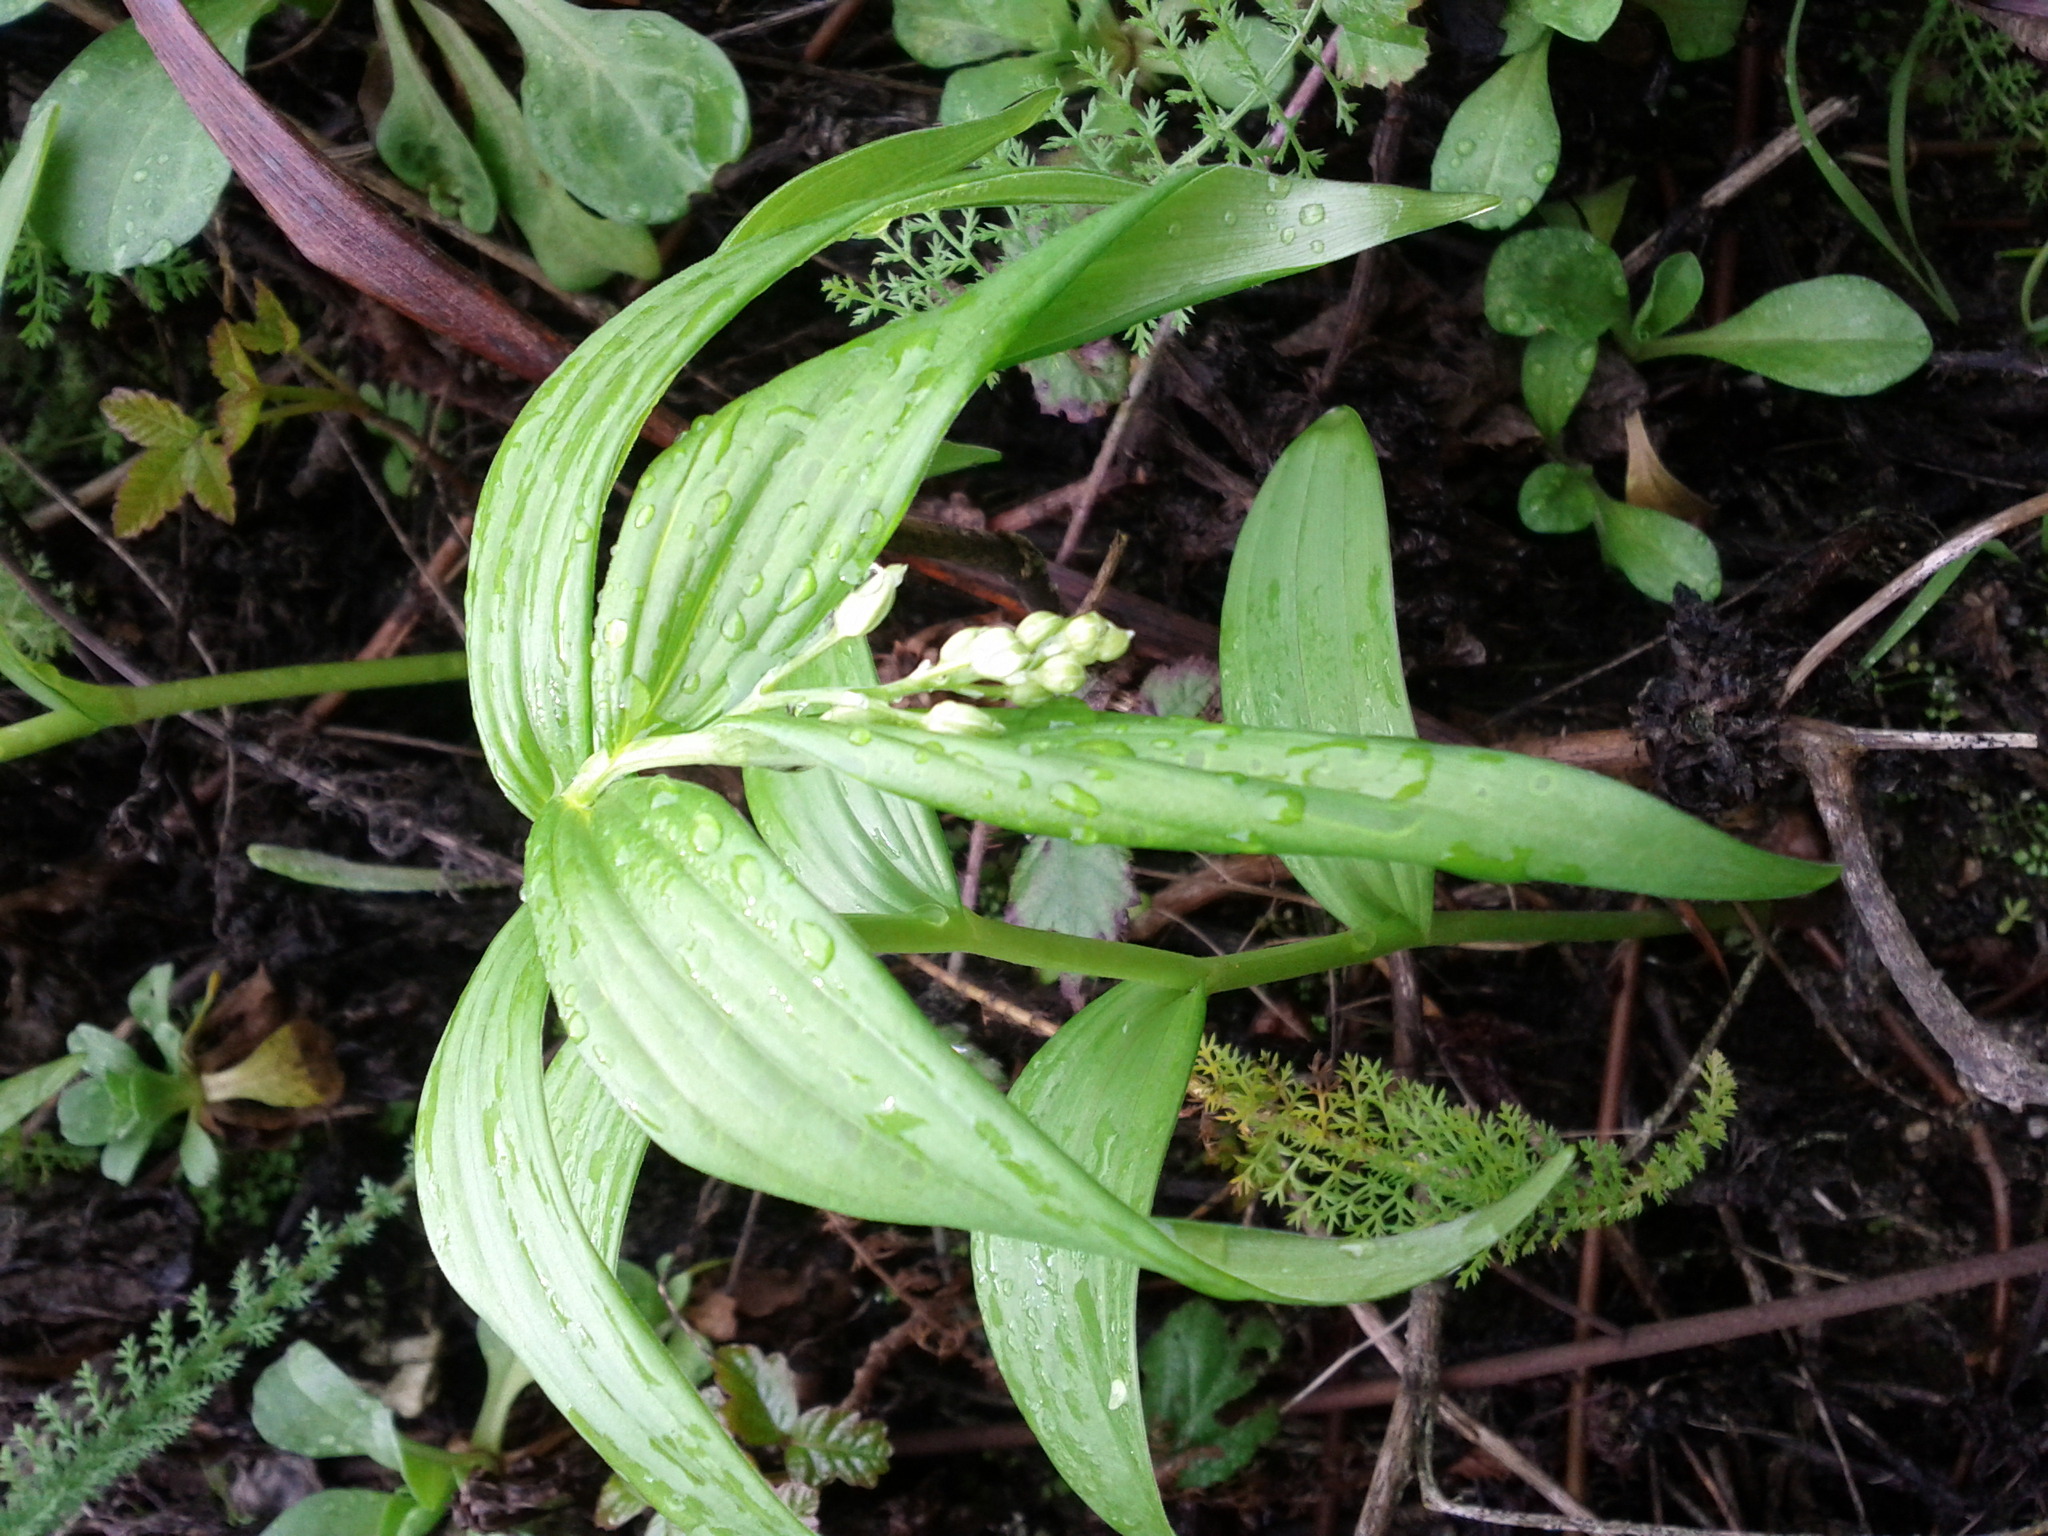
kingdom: Plantae
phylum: Tracheophyta
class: Liliopsida
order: Asparagales
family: Asparagaceae
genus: Maianthemum
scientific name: Maianthemum stellatum
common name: Little false solomon's seal
